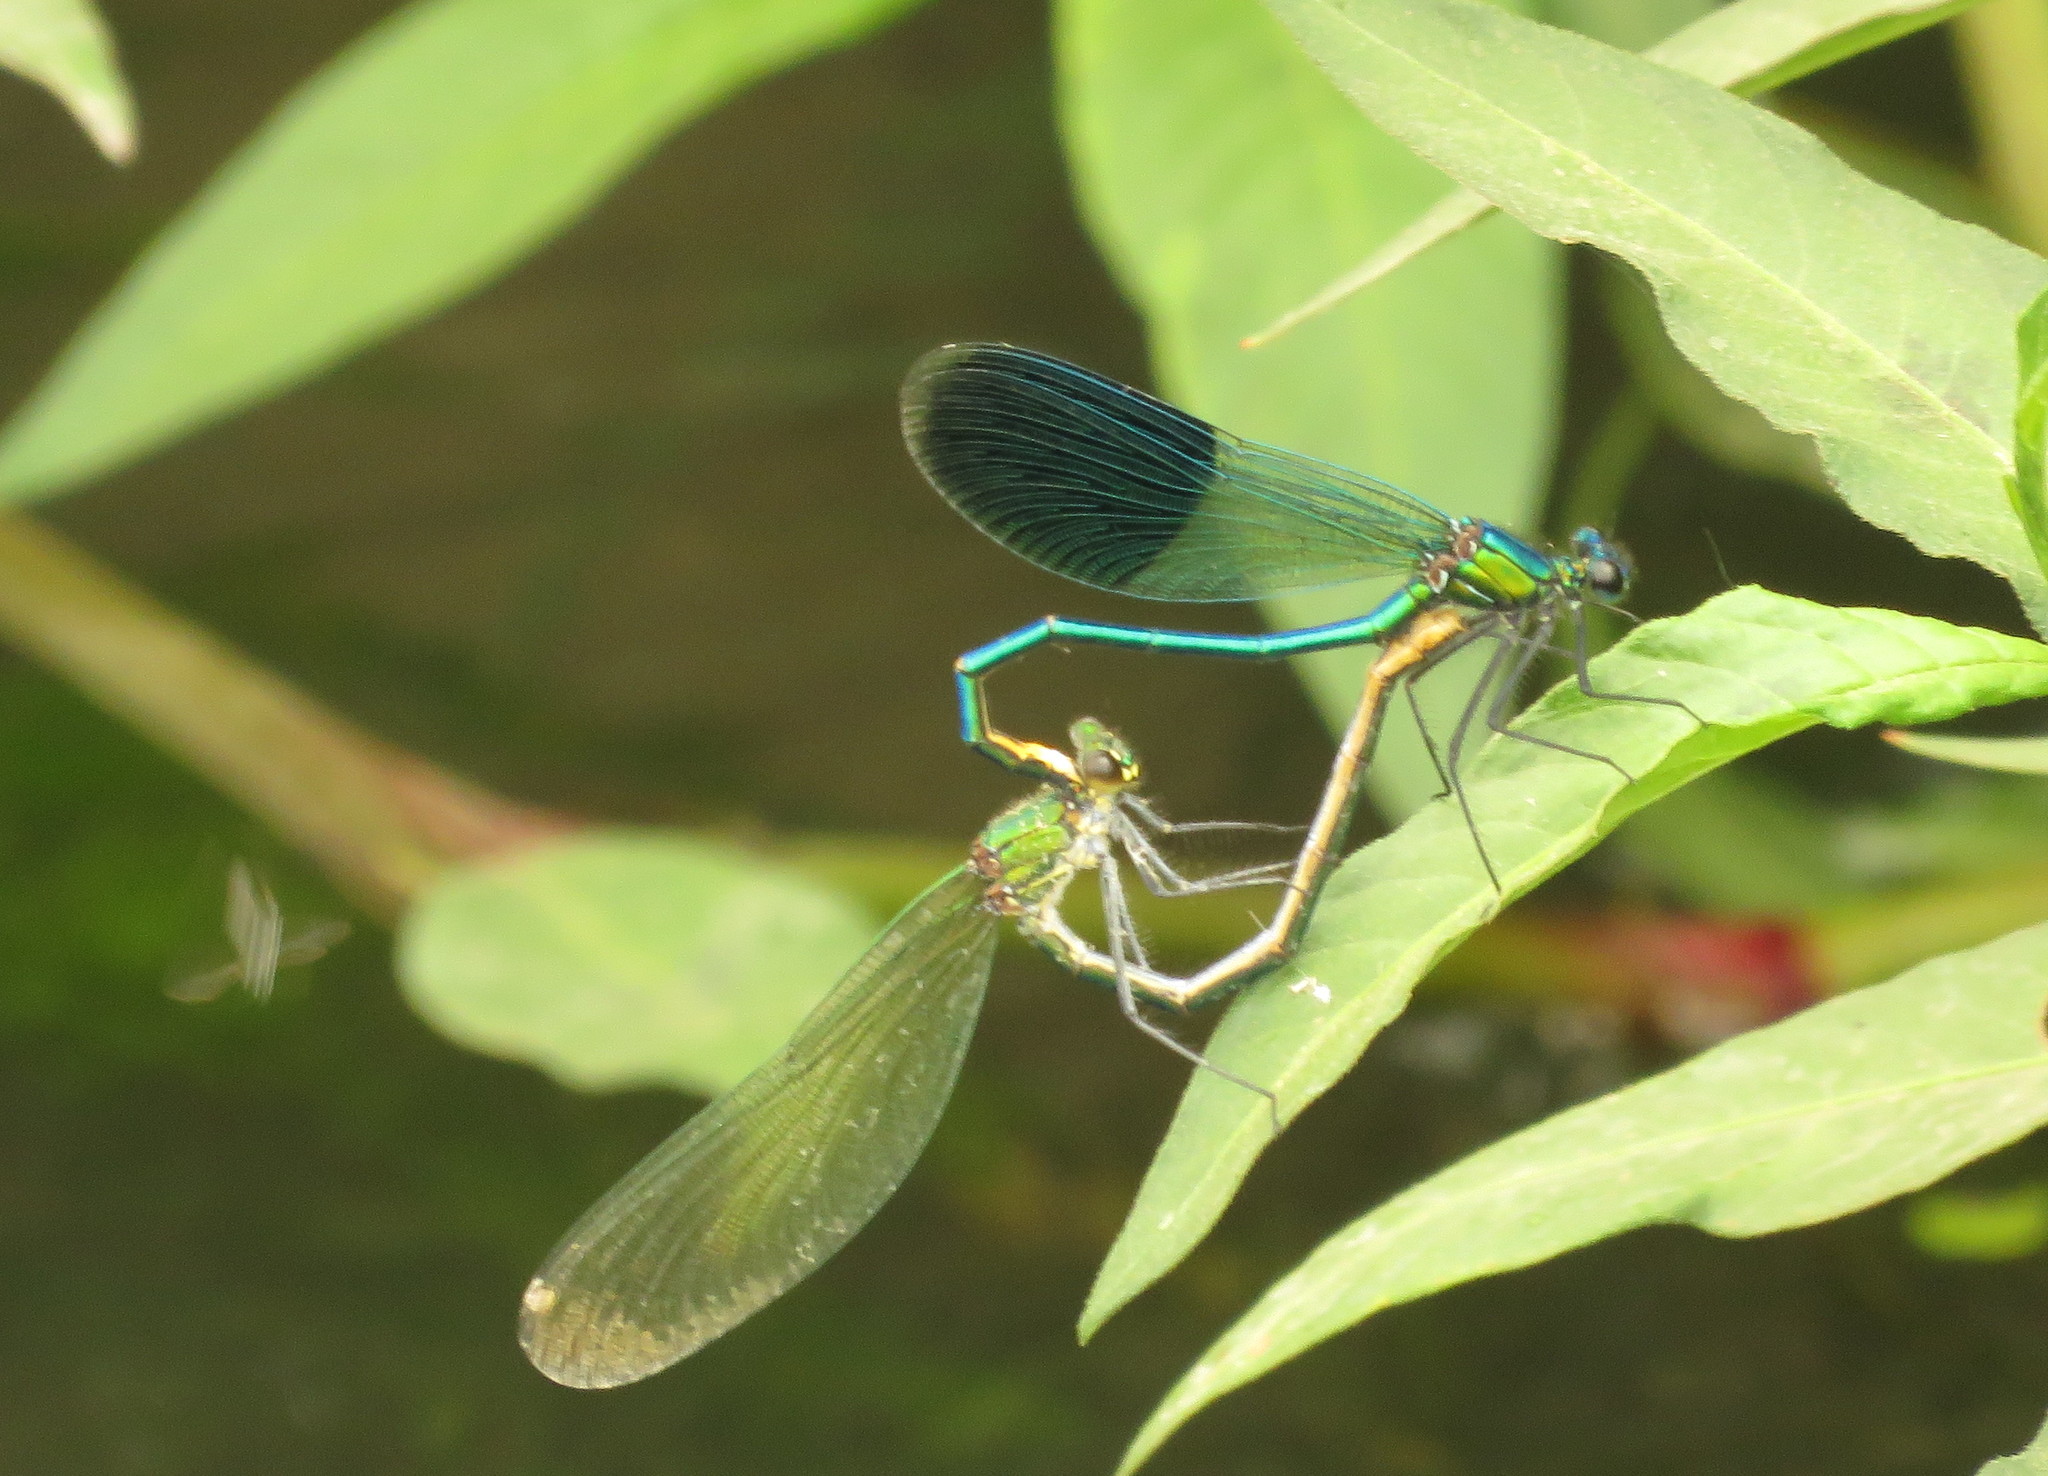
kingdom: Animalia
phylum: Arthropoda
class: Insecta
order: Odonata
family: Calopterygidae
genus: Calopteryx
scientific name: Calopteryx splendens
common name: Banded demoiselle
